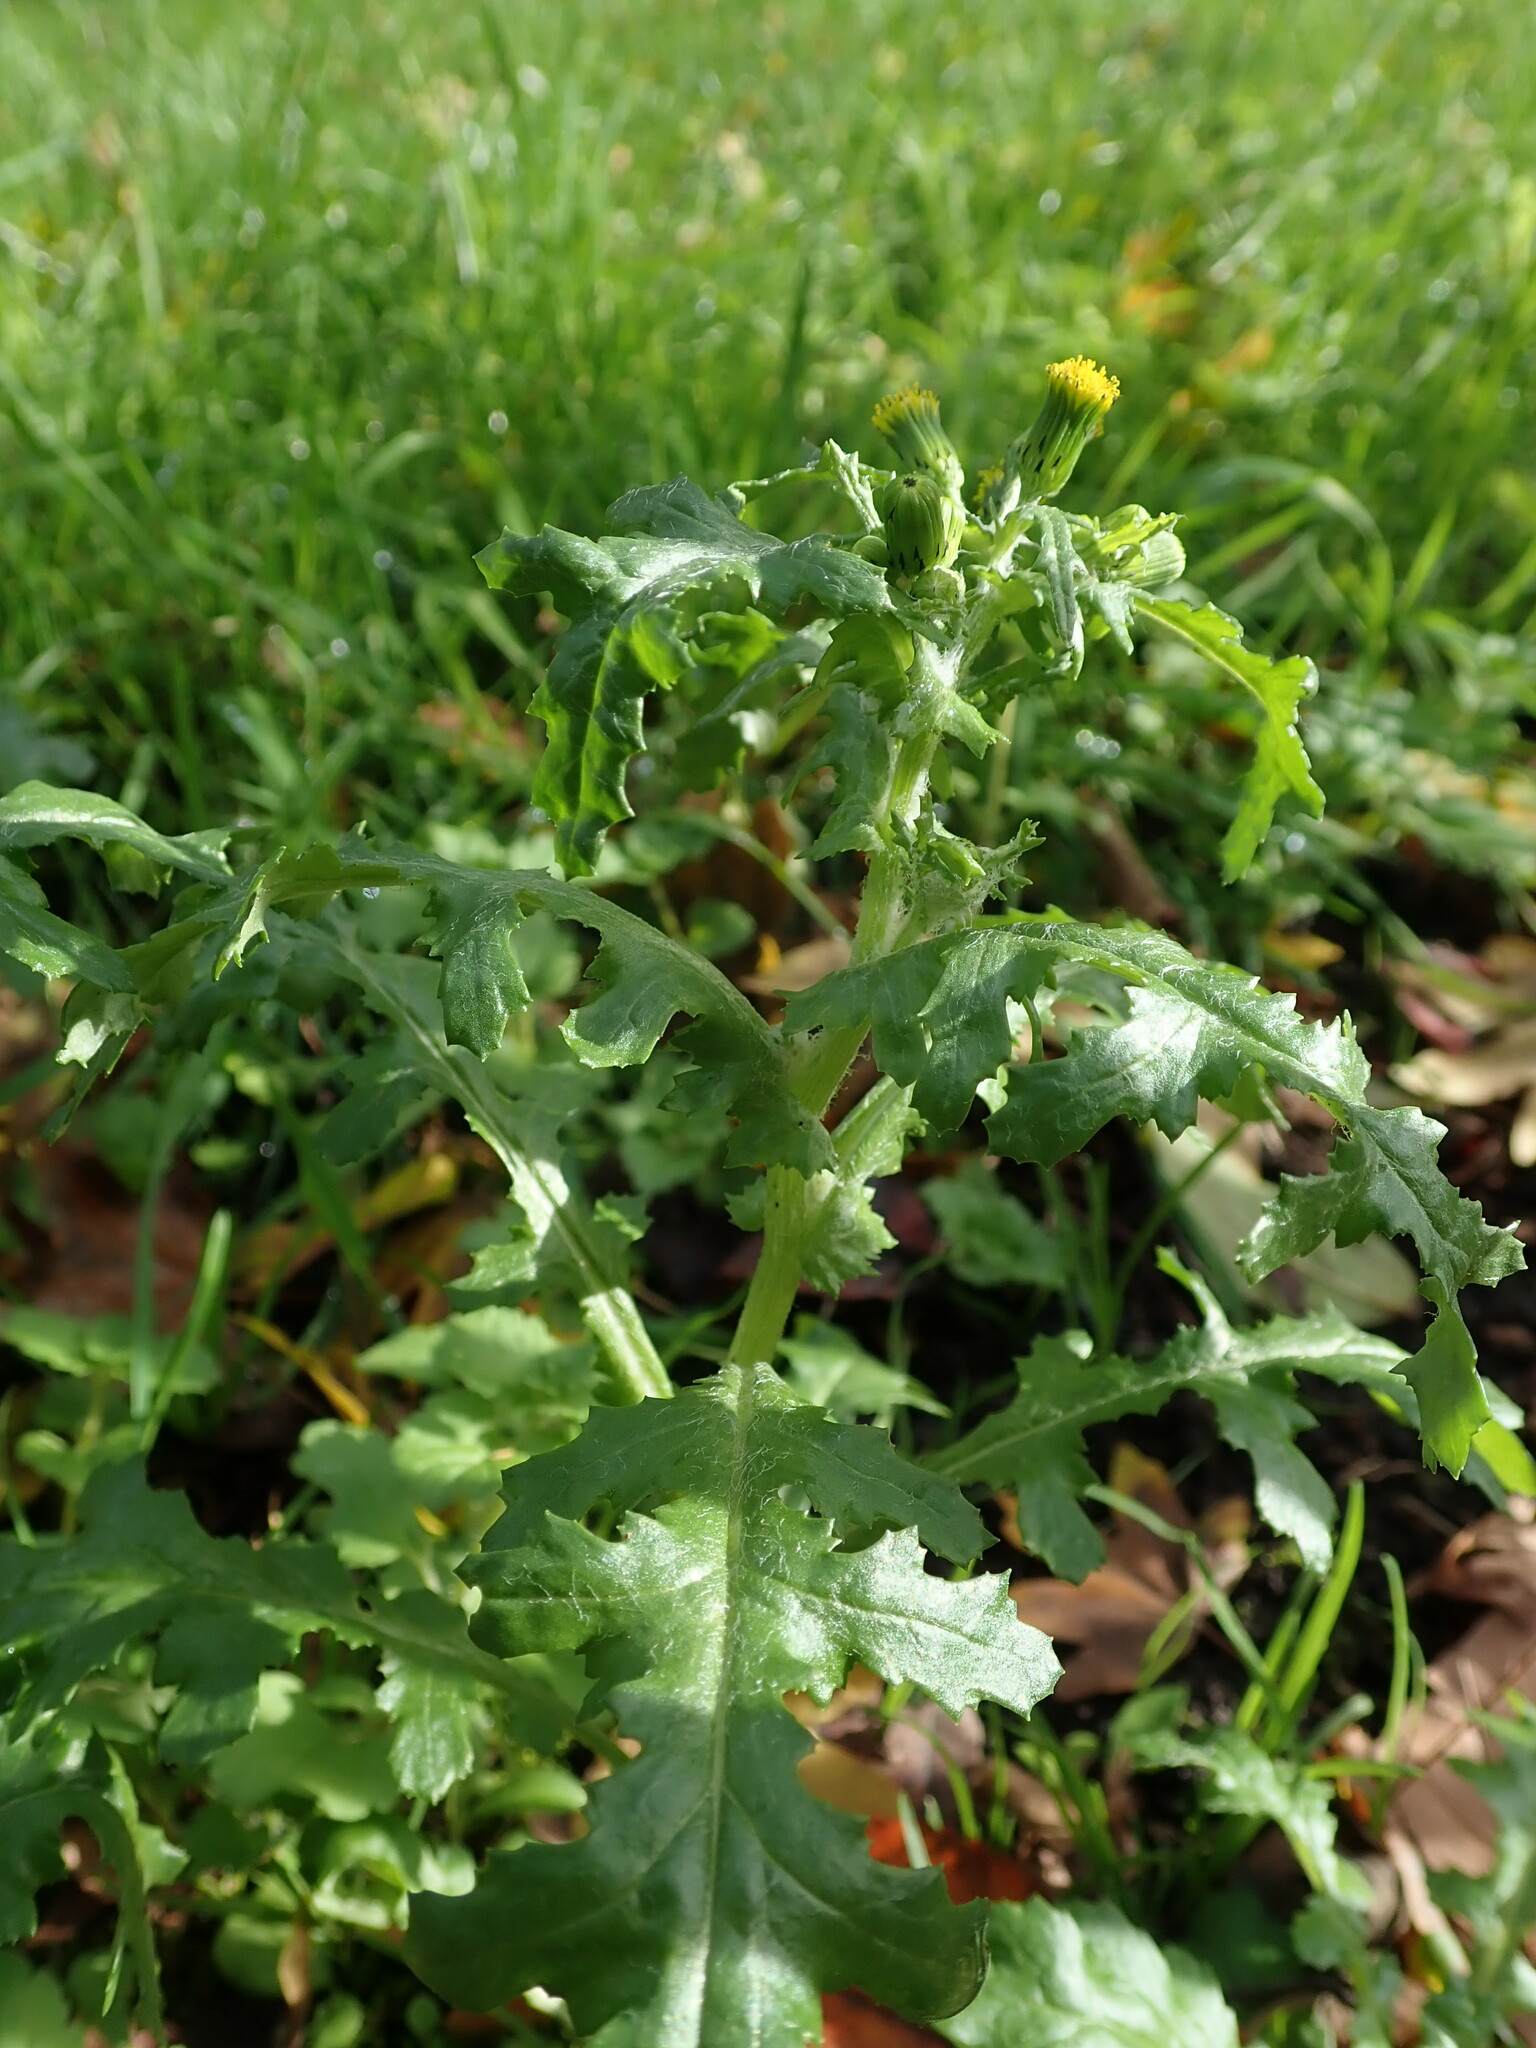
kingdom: Plantae
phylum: Tracheophyta
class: Magnoliopsida
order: Asterales
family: Asteraceae
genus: Senecio
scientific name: Senecio vulgaris
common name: Old-man-in-the-spring
